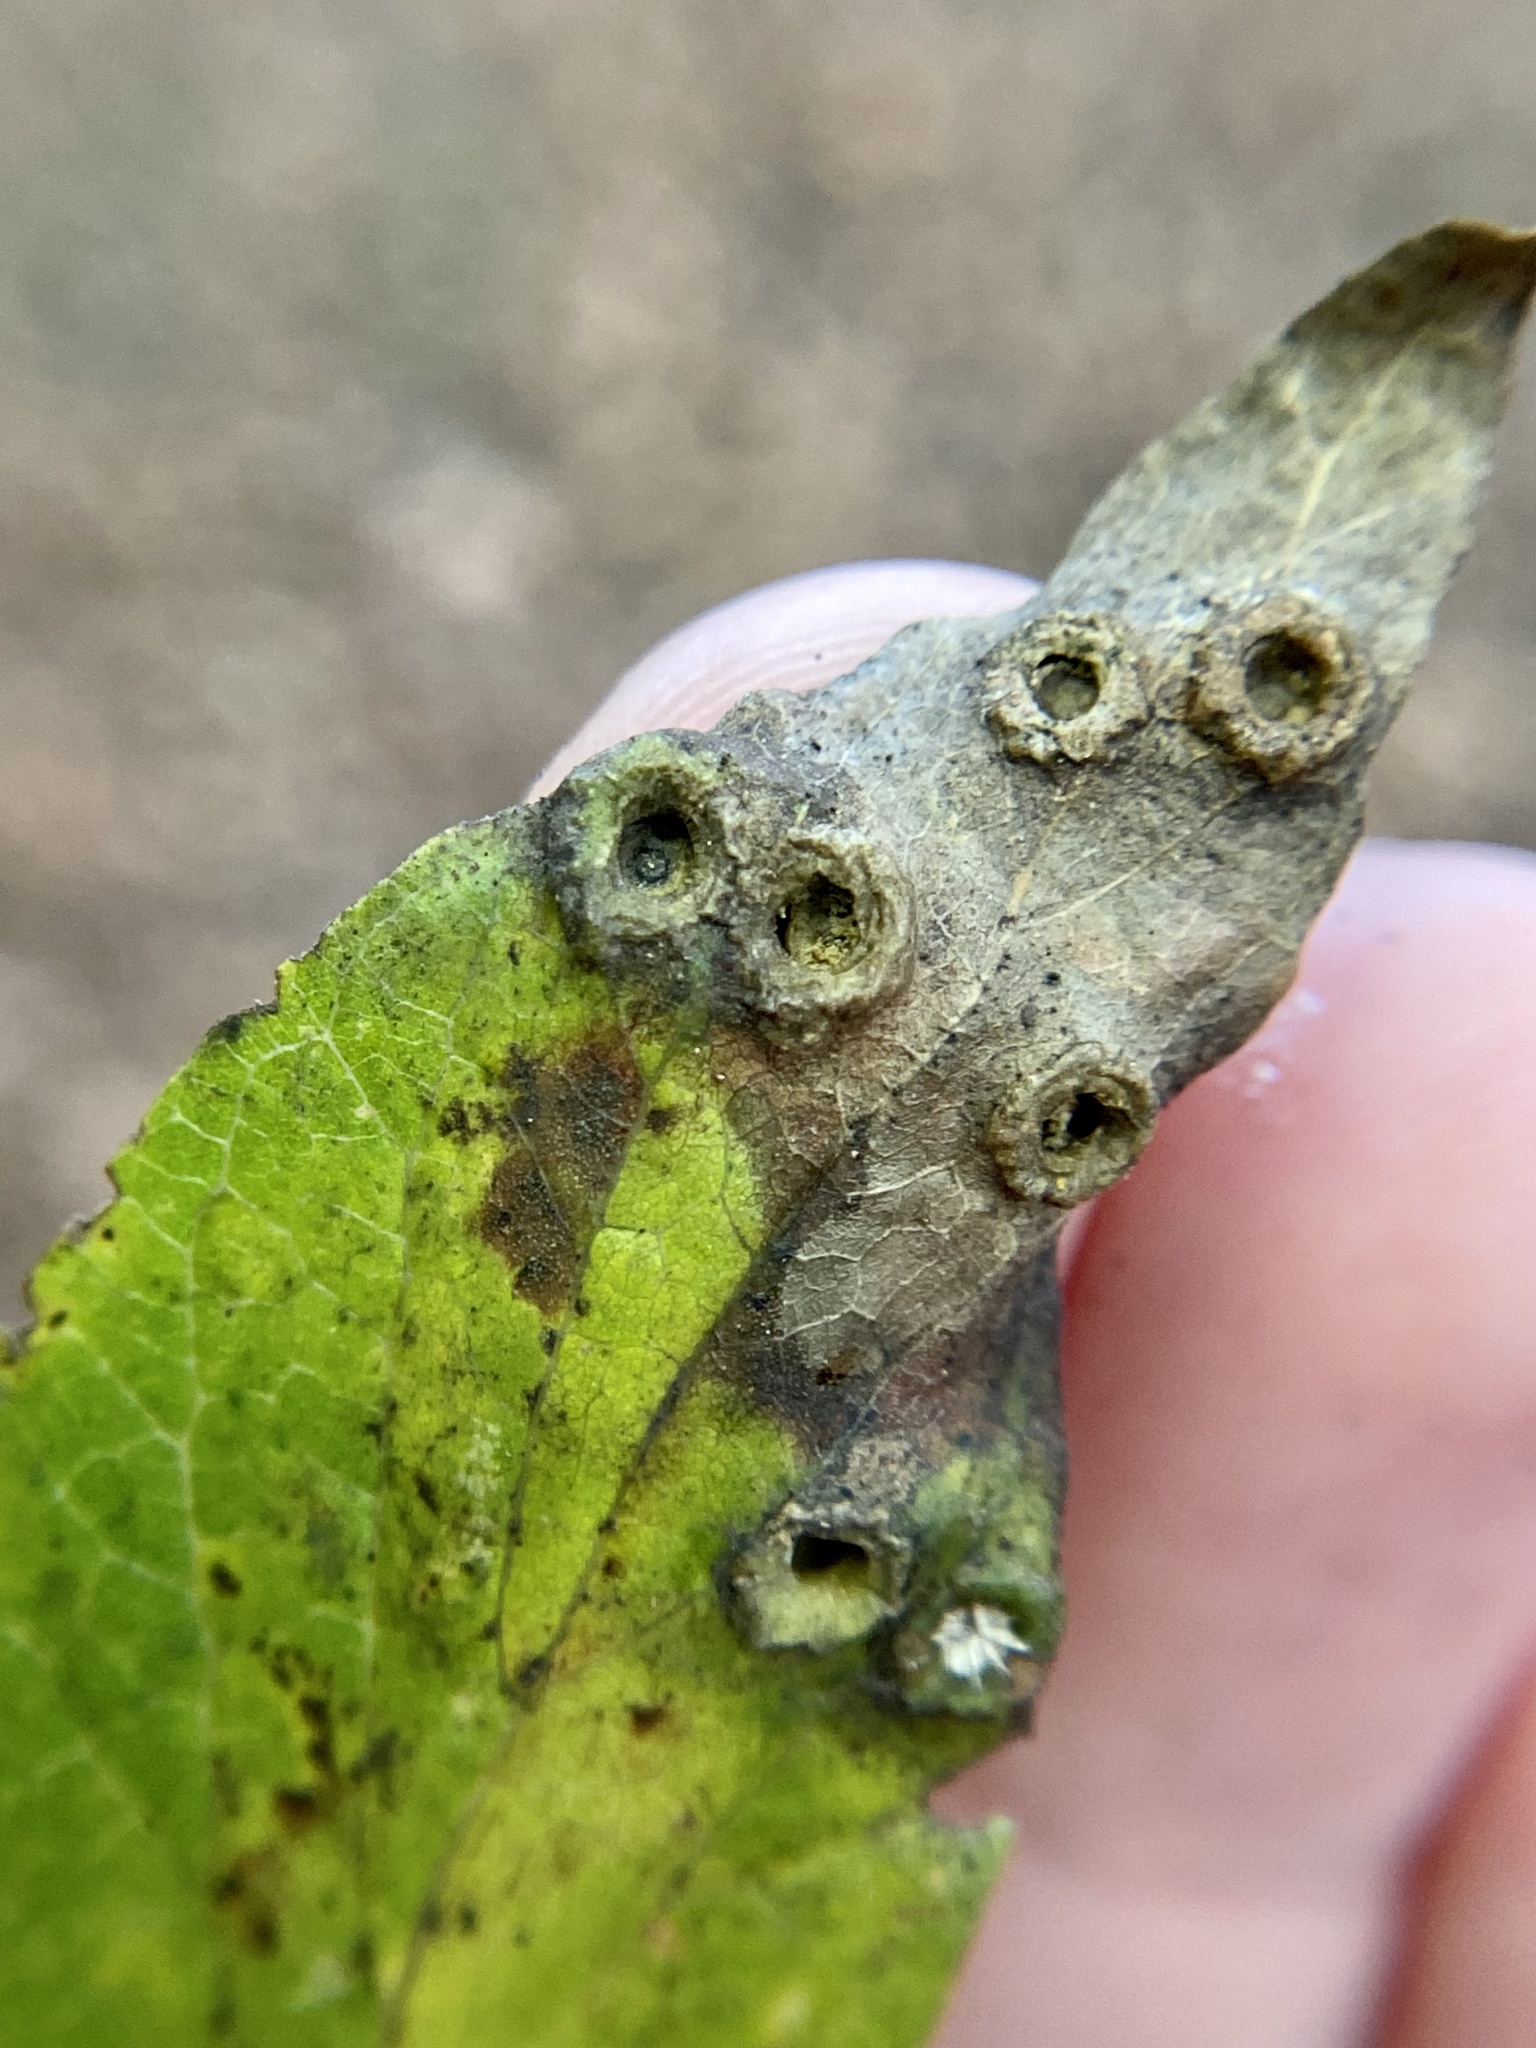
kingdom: Animalia
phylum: Arthropoda
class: Insecta
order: Hemiptera
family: Aphalaridae
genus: Pachypsylla
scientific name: Pachypsylla celtidismamma
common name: Hackberry nipplegall psyllid
